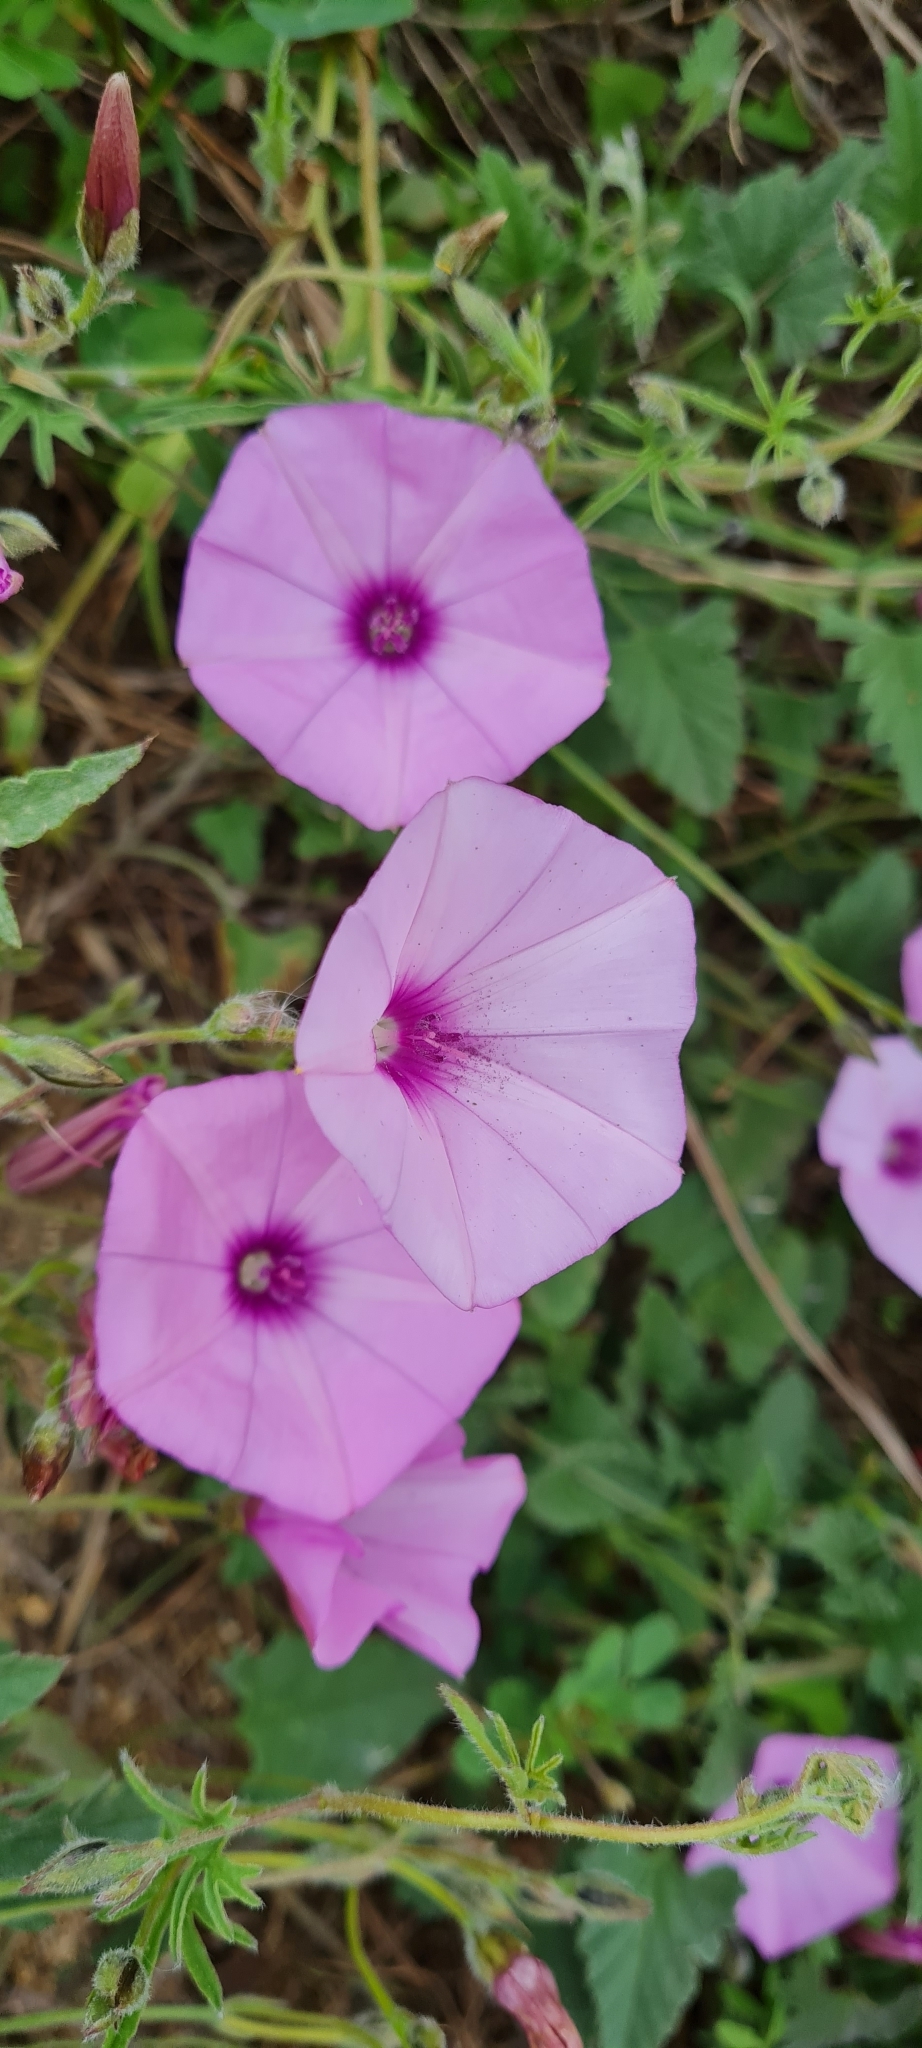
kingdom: Plantae
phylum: Tracheophyta
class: Magnoliopsida
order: Solanales
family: Convolvulaceae
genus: Convolvulus
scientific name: Convolvulus althaeoides
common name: Mallow bindweed
